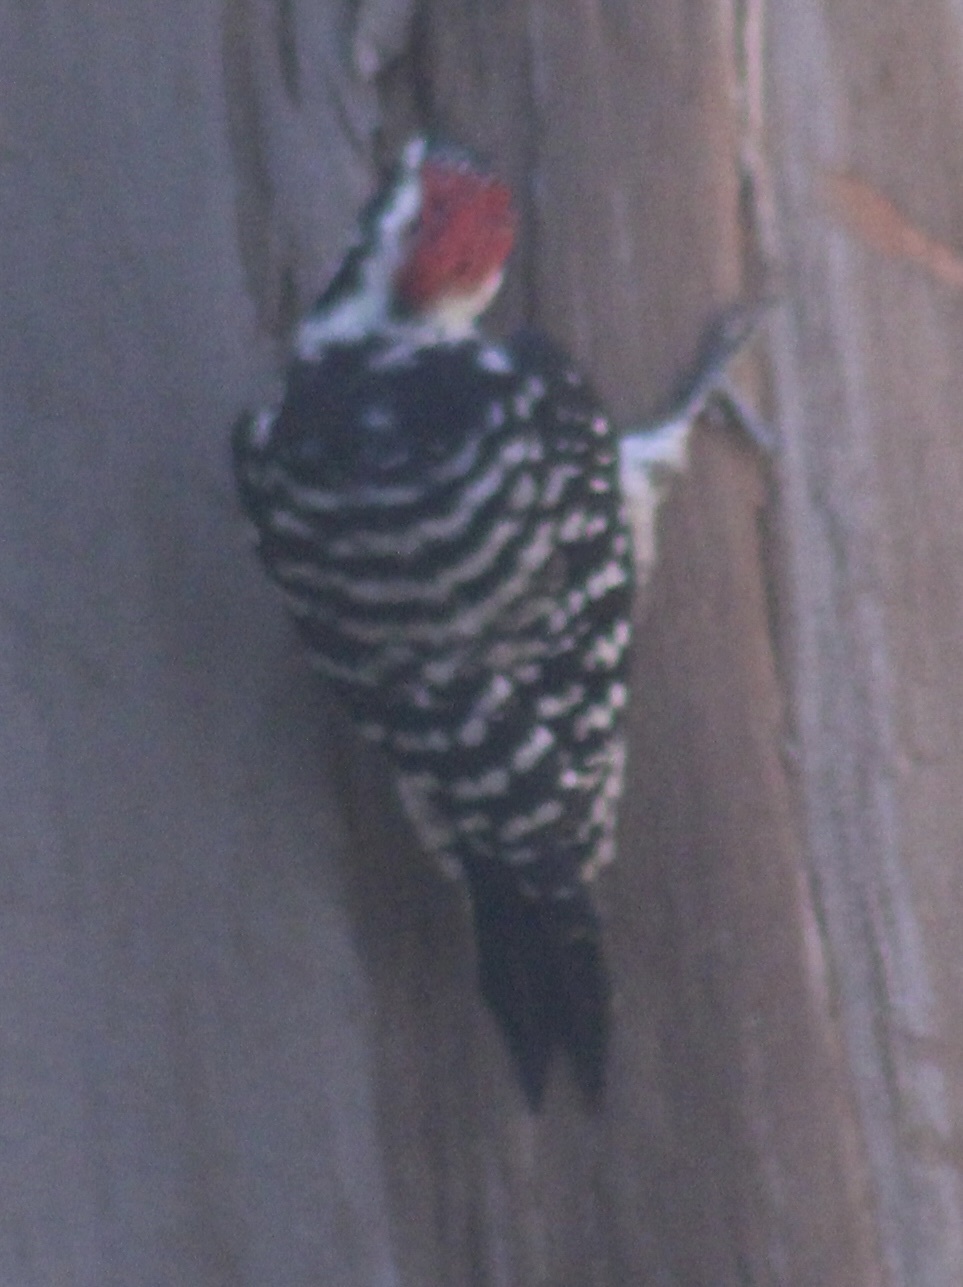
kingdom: Animalia
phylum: Chordata
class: Aves
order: Piciformes
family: Picidae
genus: Dryobates
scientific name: Dryobates nuttallii
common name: Nuttall's woodpecker
